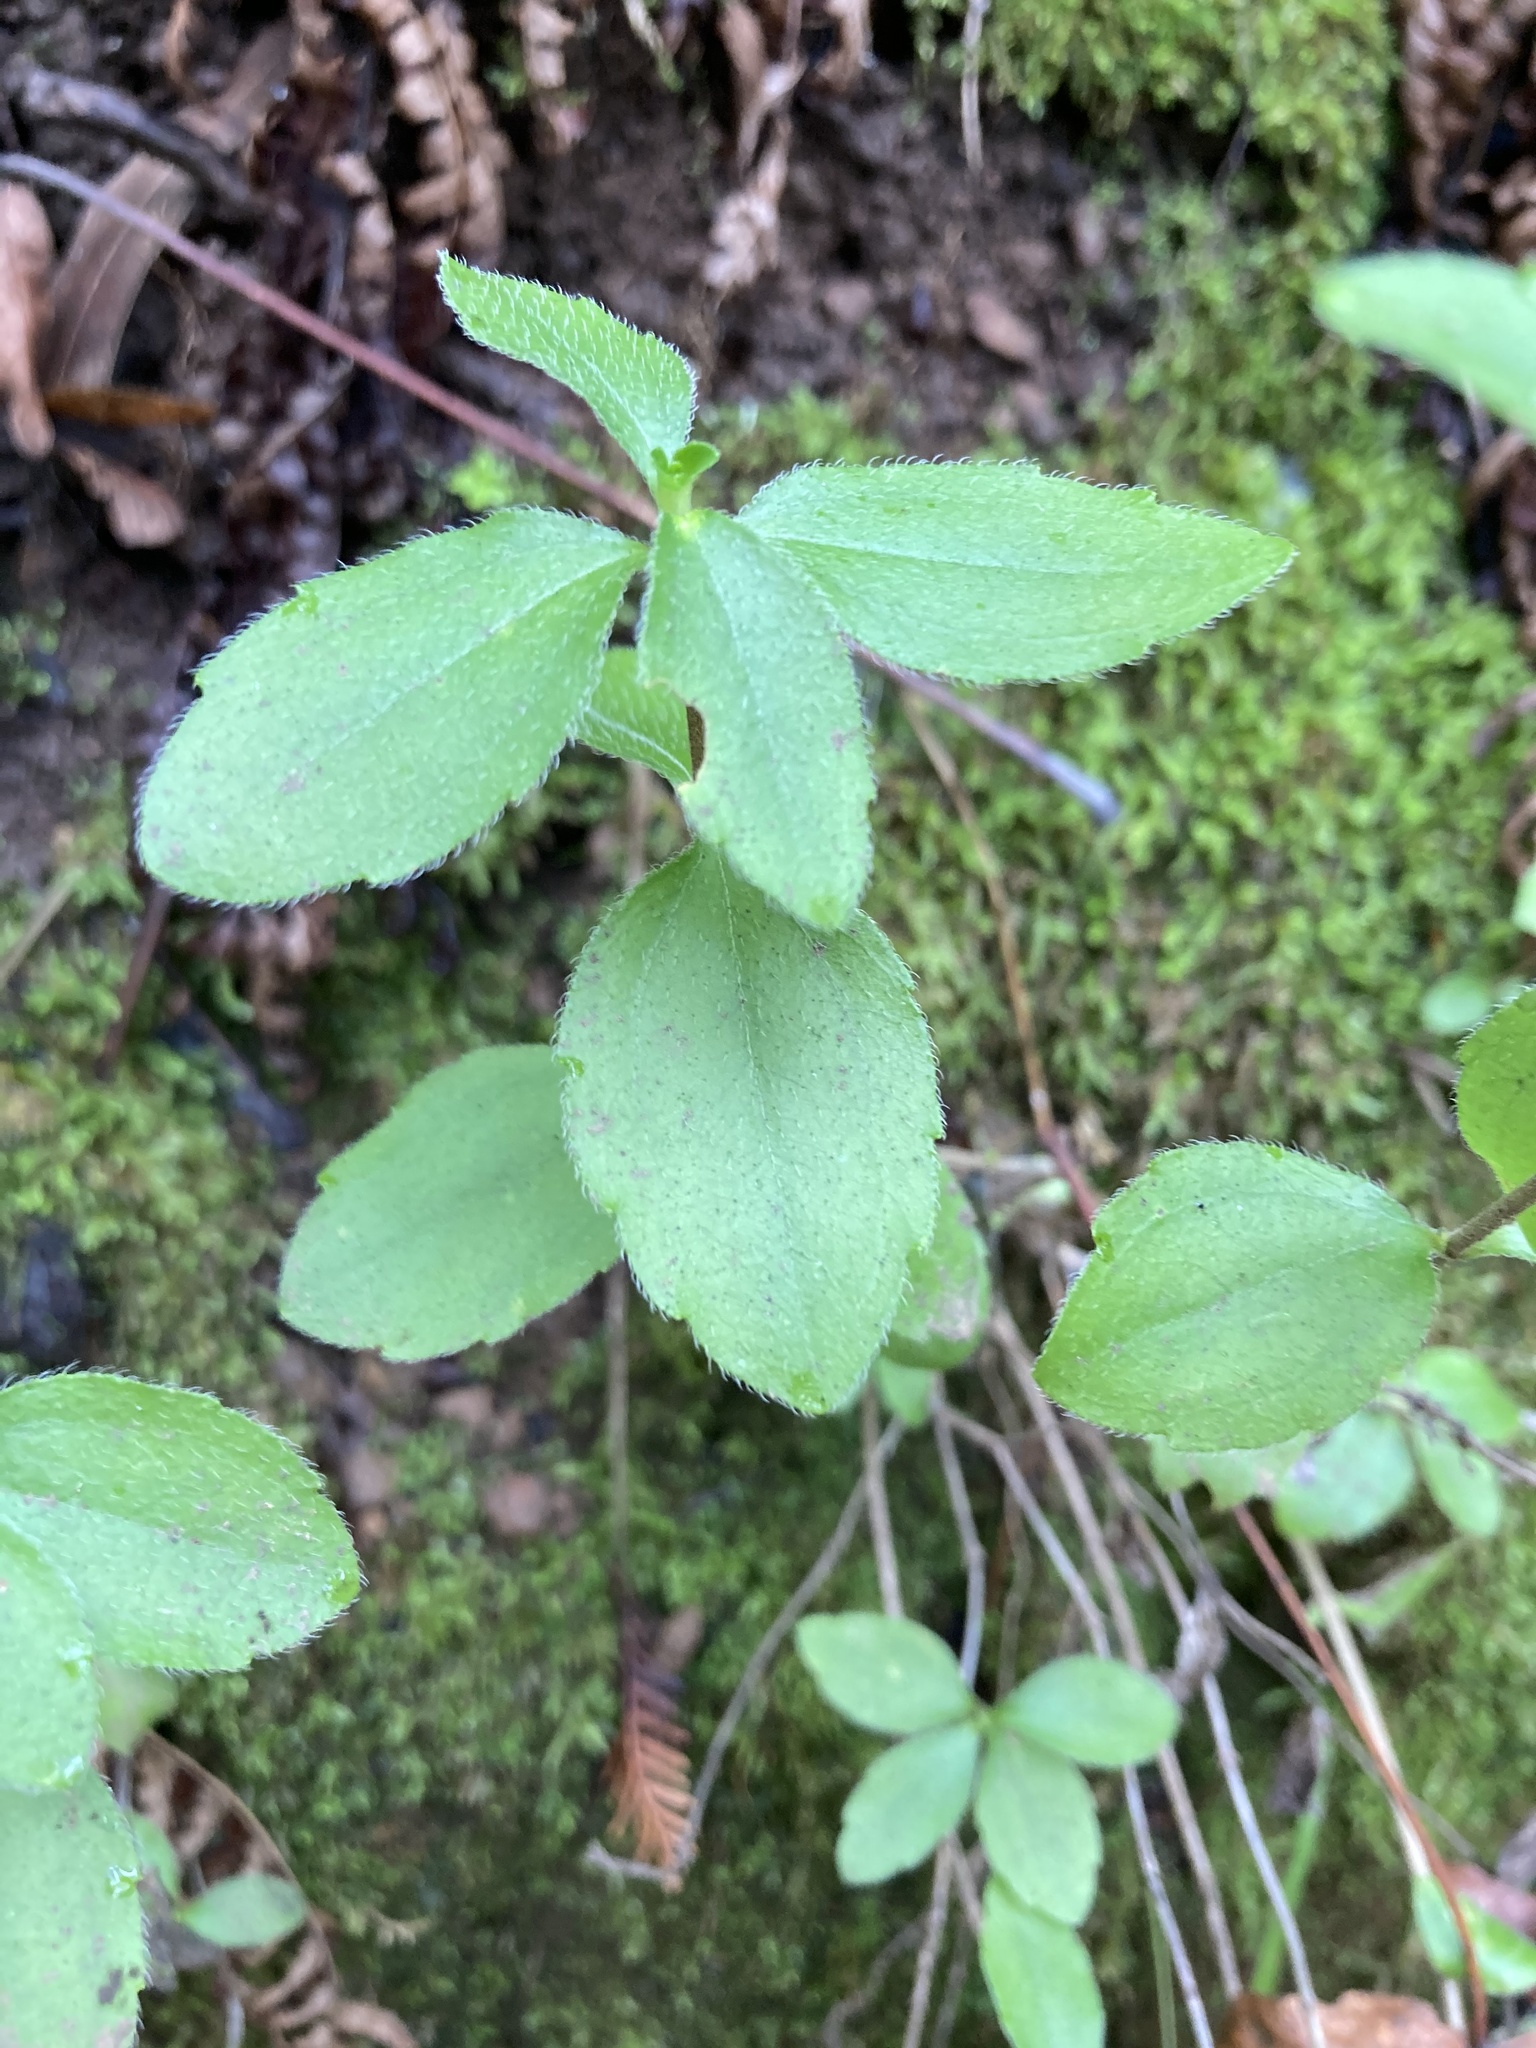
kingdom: Plantae
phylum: Tracheophyta
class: Magnoliopsida
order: Cornales
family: Hydrangeaceae
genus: Whipplea
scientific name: Whipplea modesta
